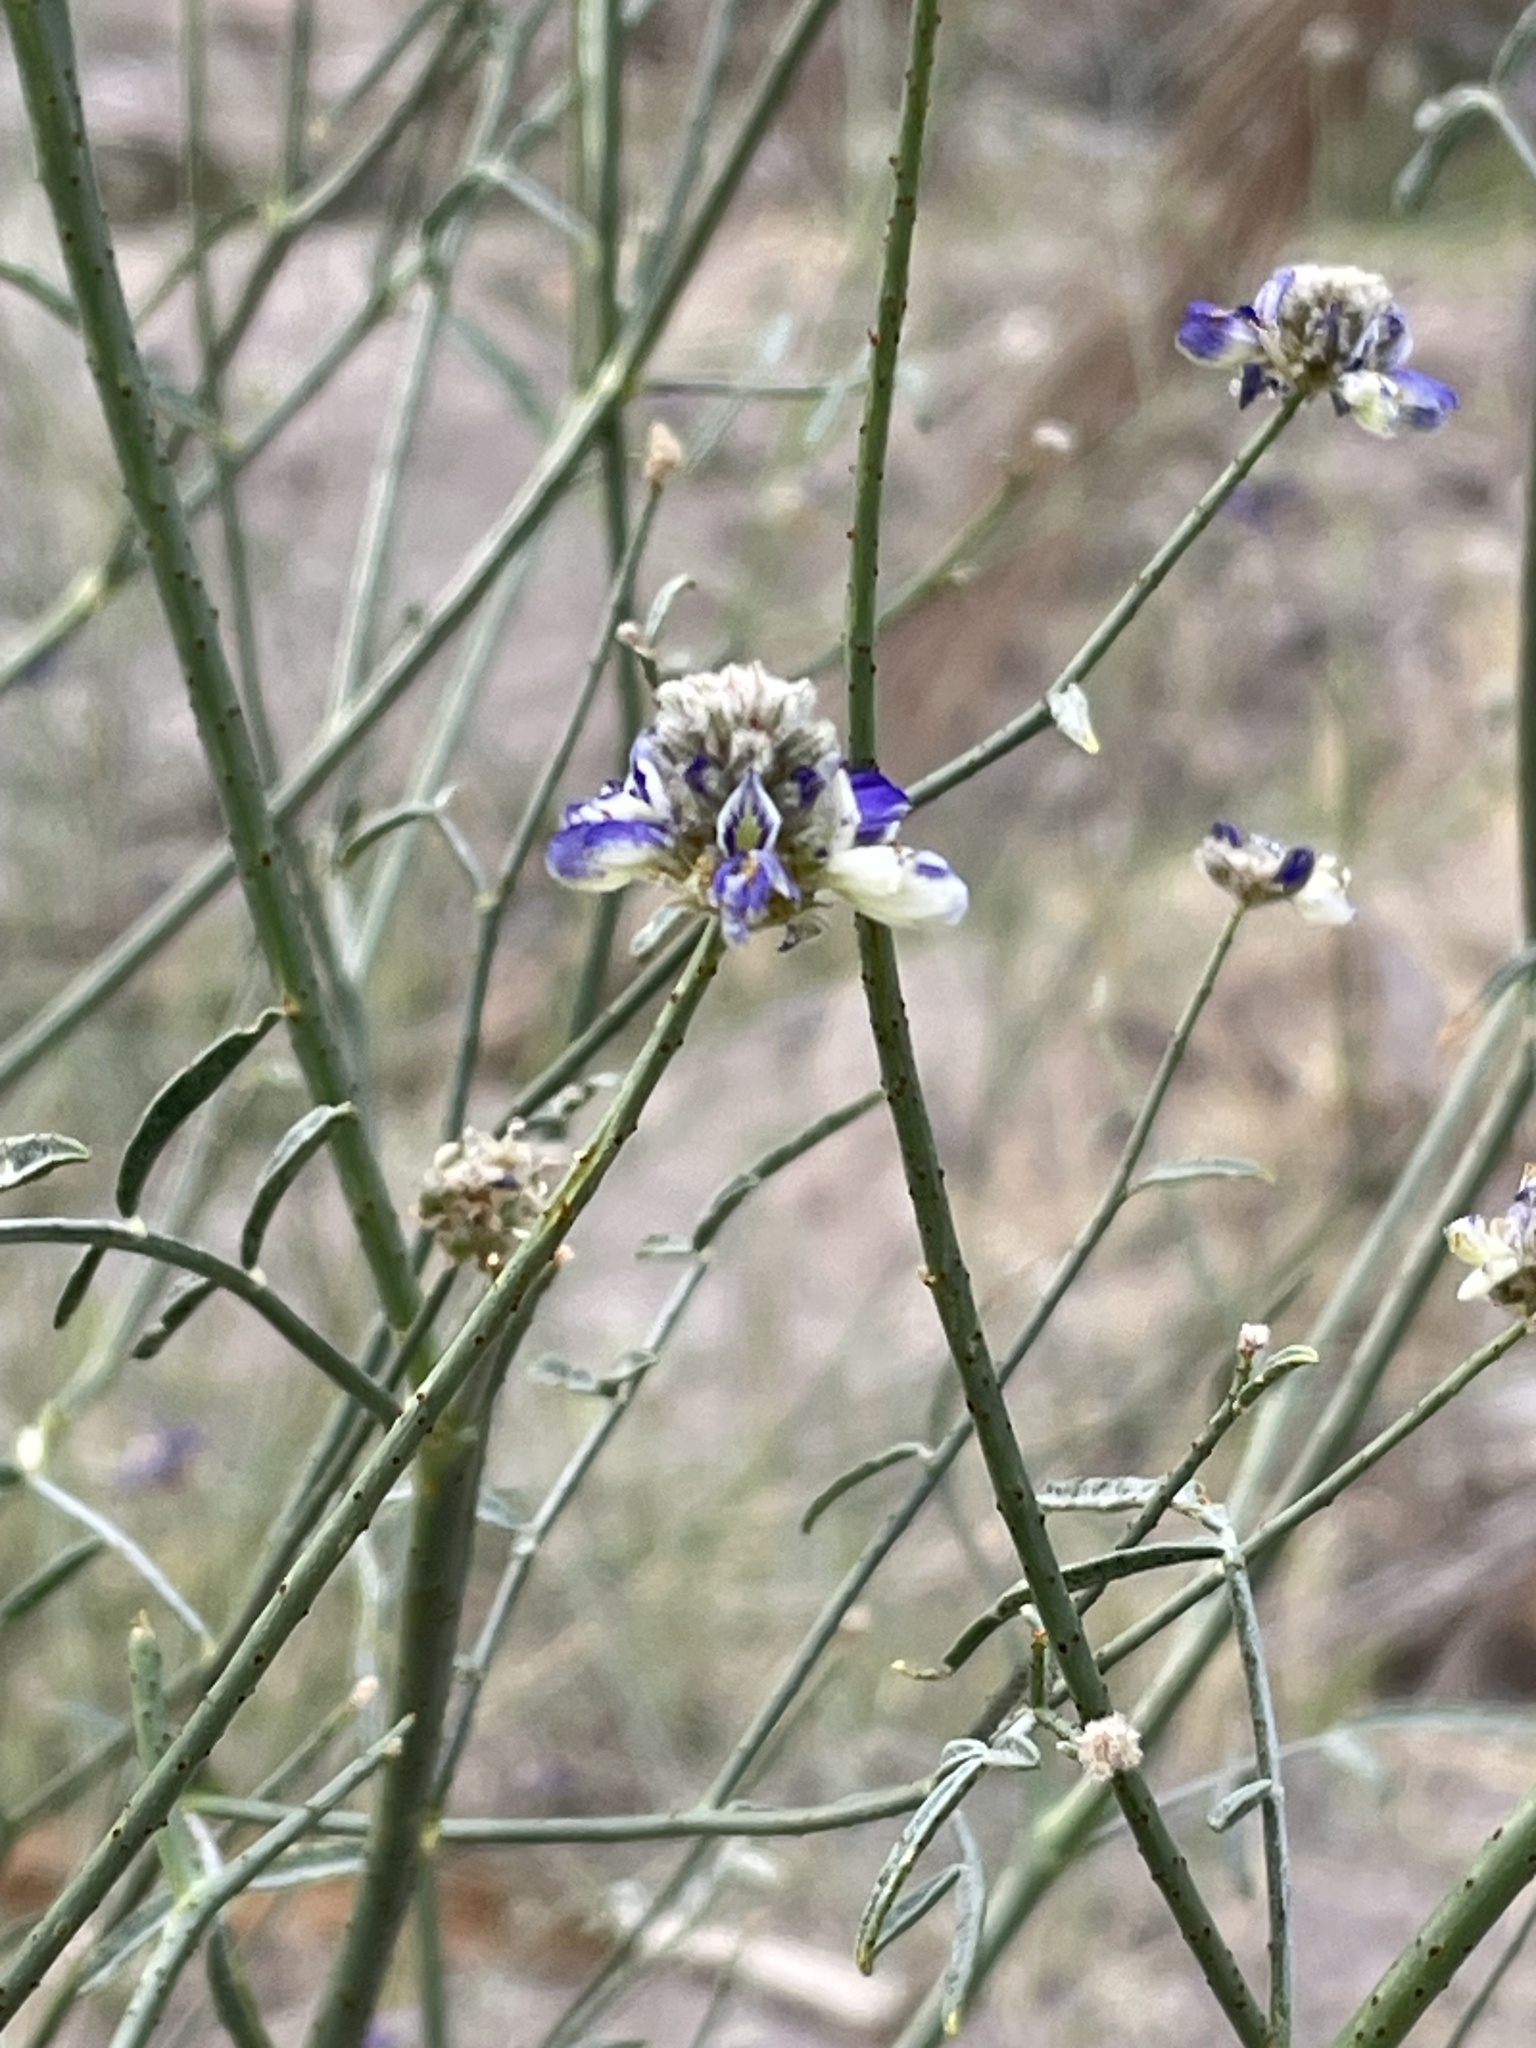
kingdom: Plantae
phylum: Tracheophyta
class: Magnoliopsida
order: Fabales
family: Fabaceae
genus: Psorothamnus
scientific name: Psorothamnus emoryi
